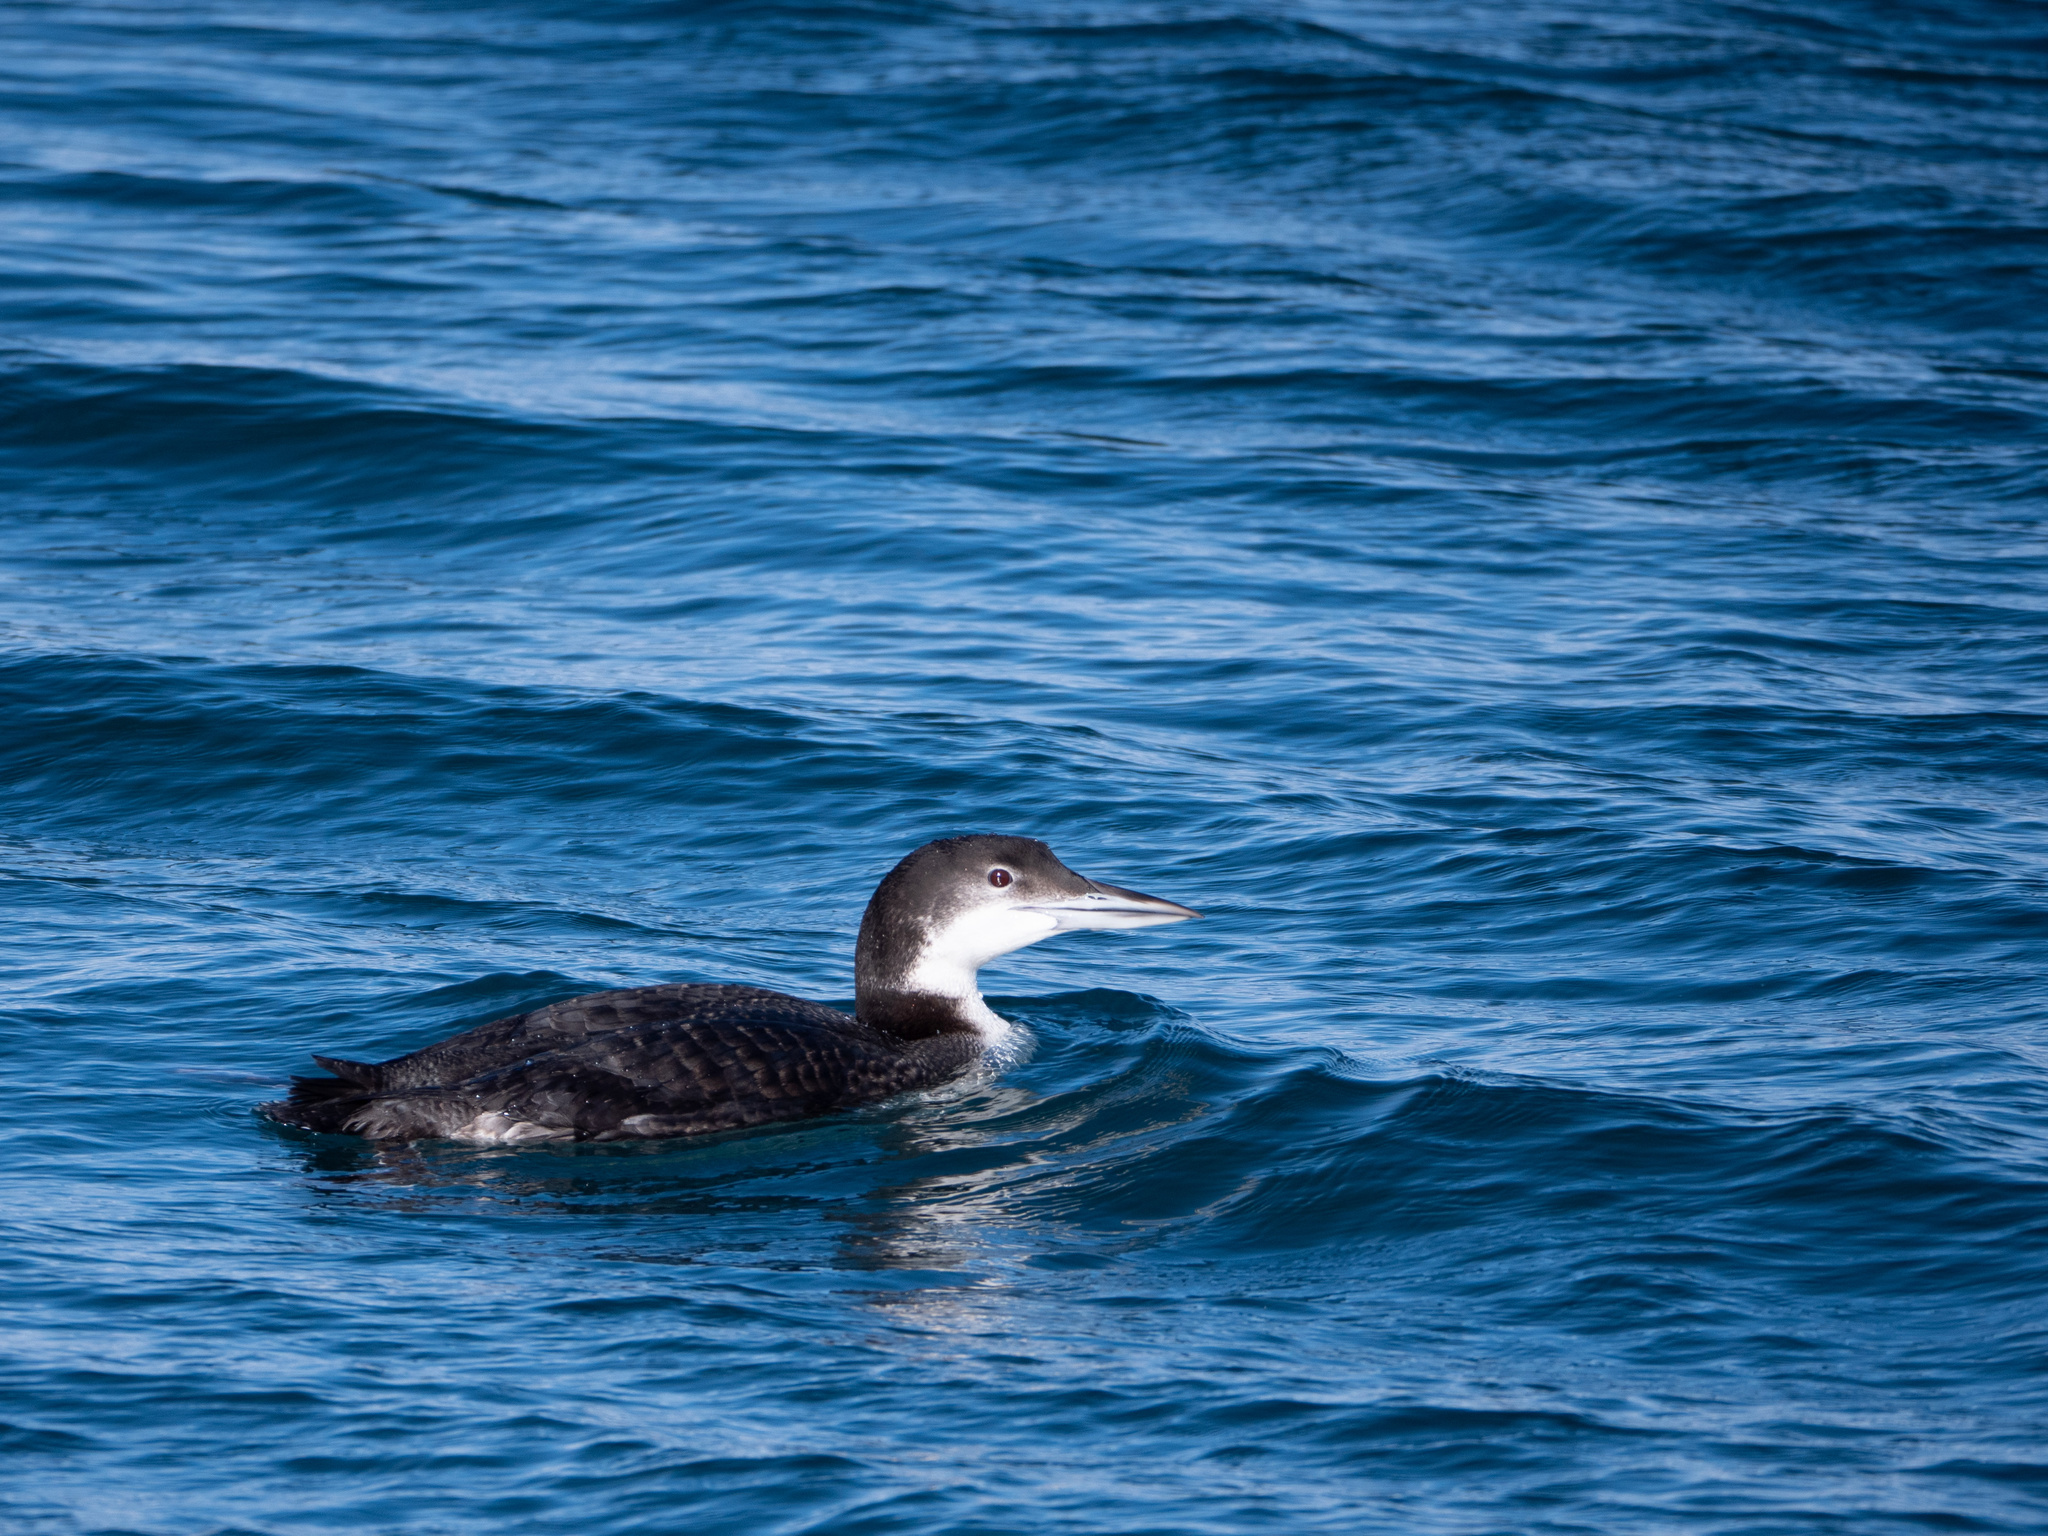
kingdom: Animalia
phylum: Chordata
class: Aves
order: Gaviiformes
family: Gaviidae
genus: Gavia
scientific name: Gavia immer
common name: Common loon
